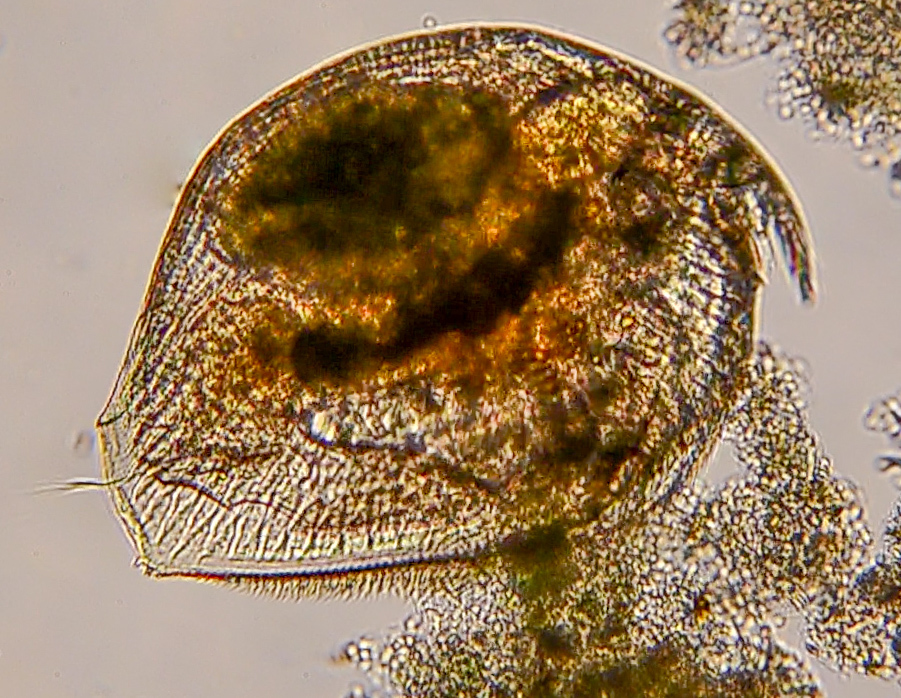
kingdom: Animalia
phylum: Arthropoda
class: Branchiopoda
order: Diplostraca
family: Chydoridae
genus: Picripleuroxus
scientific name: Picripleuroxus denticulatus
